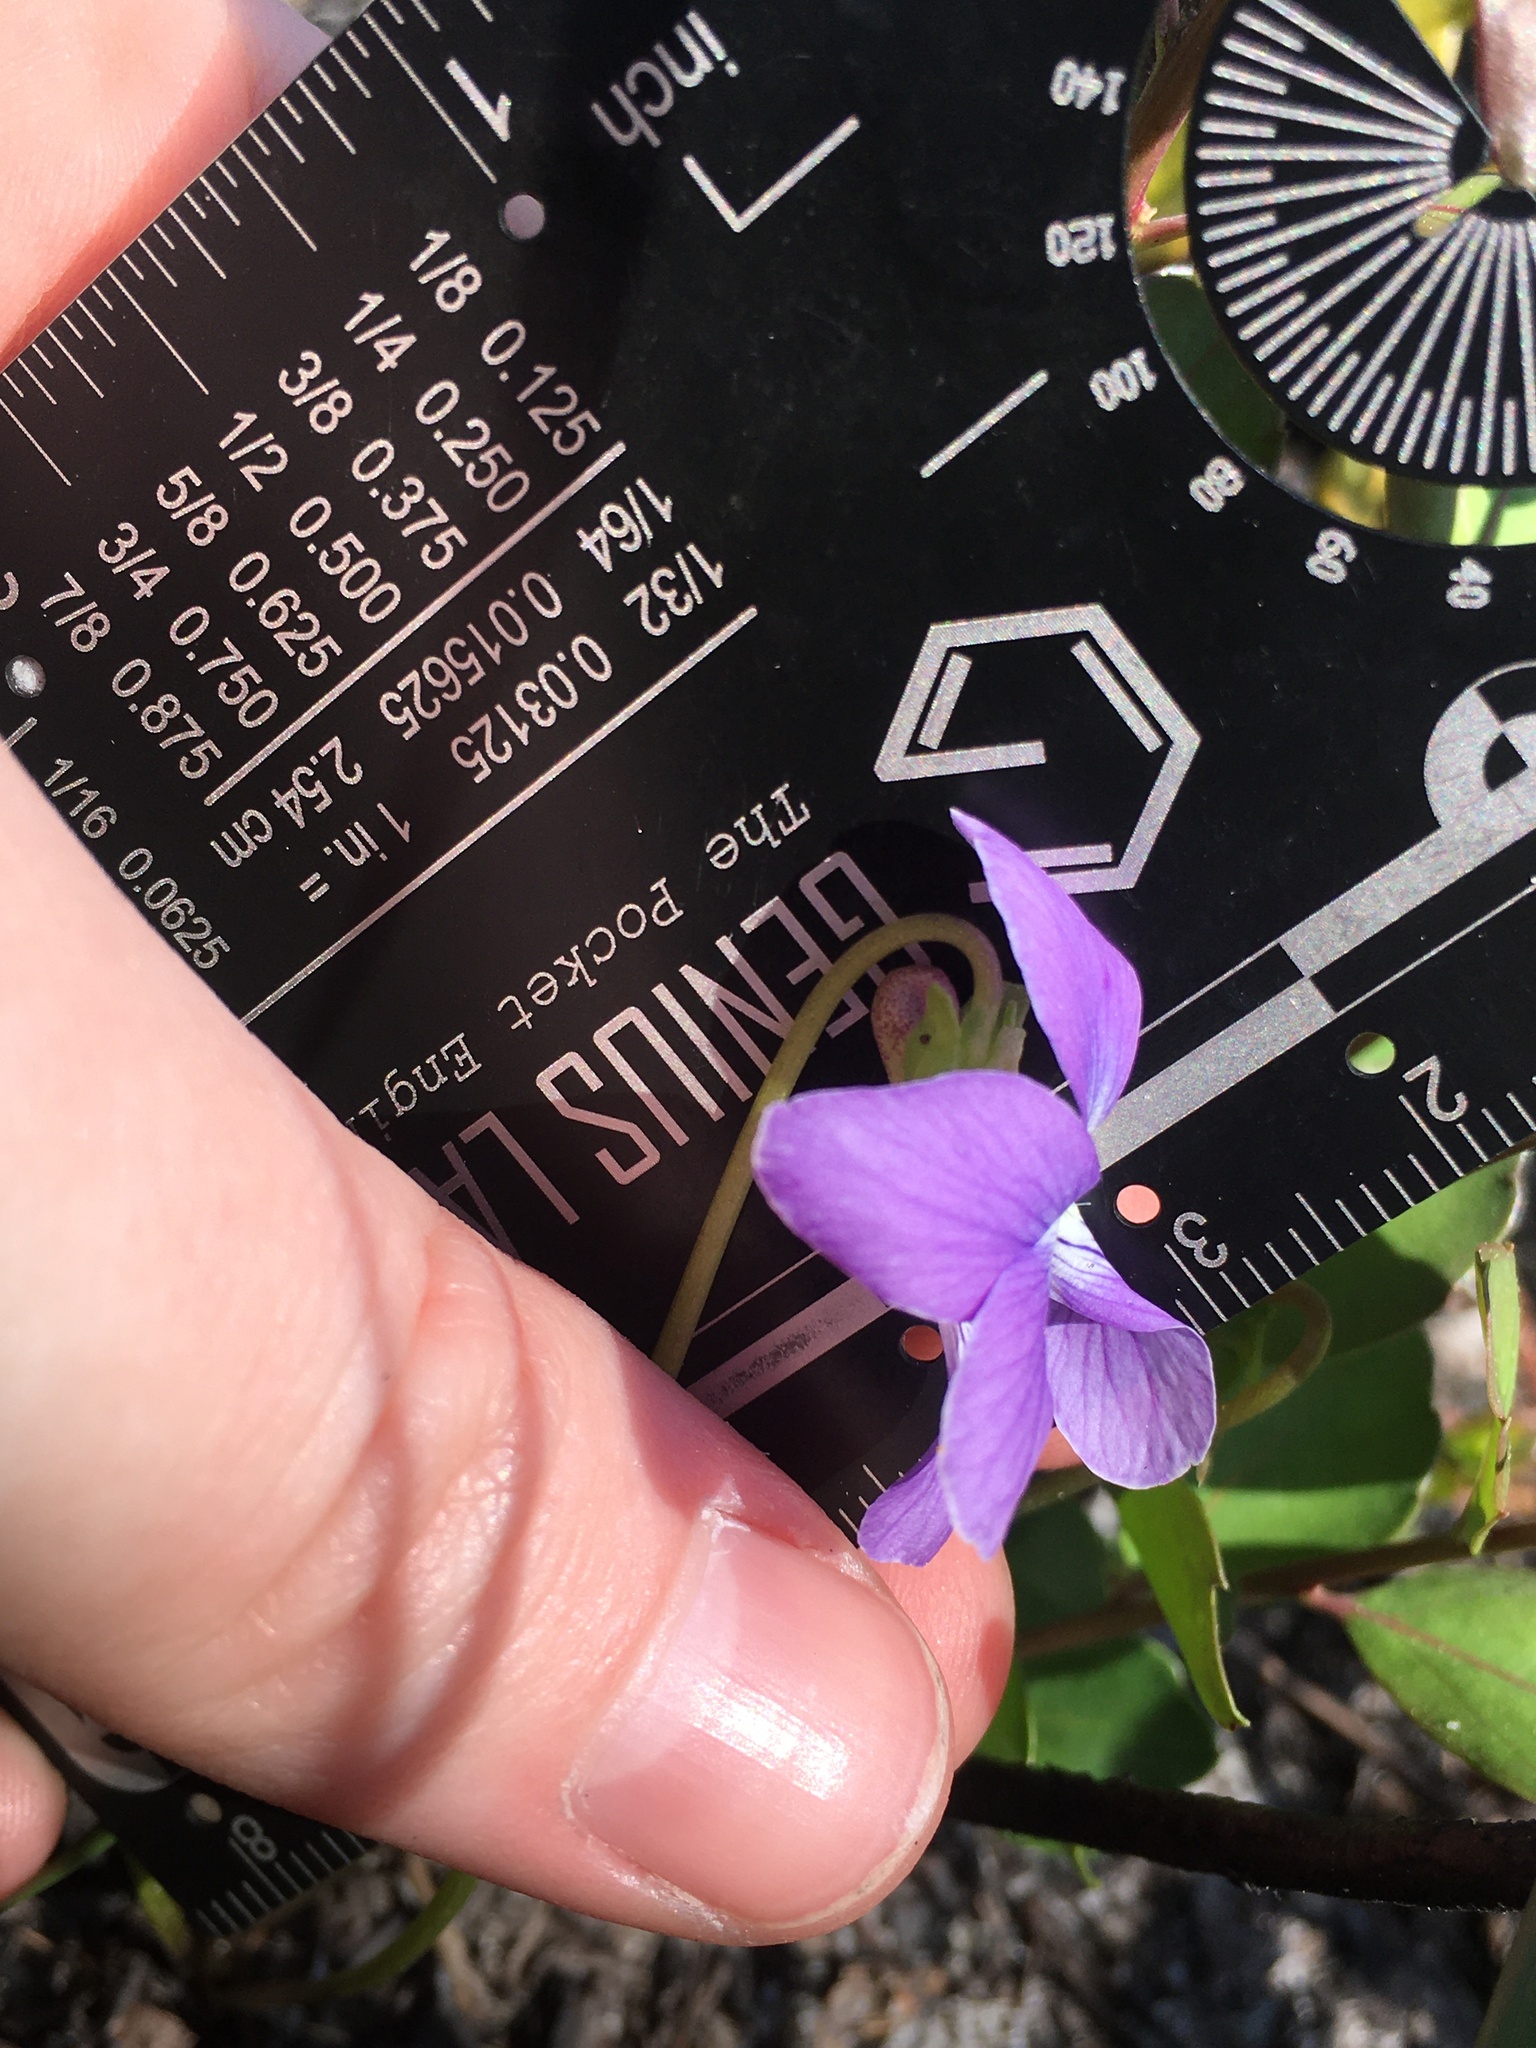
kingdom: Plantae
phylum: Tracheophyta
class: Magnoliopsida
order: Malpighiales
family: Violaceae
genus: Viola
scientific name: Viola septemloba
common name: Southern coast violet
